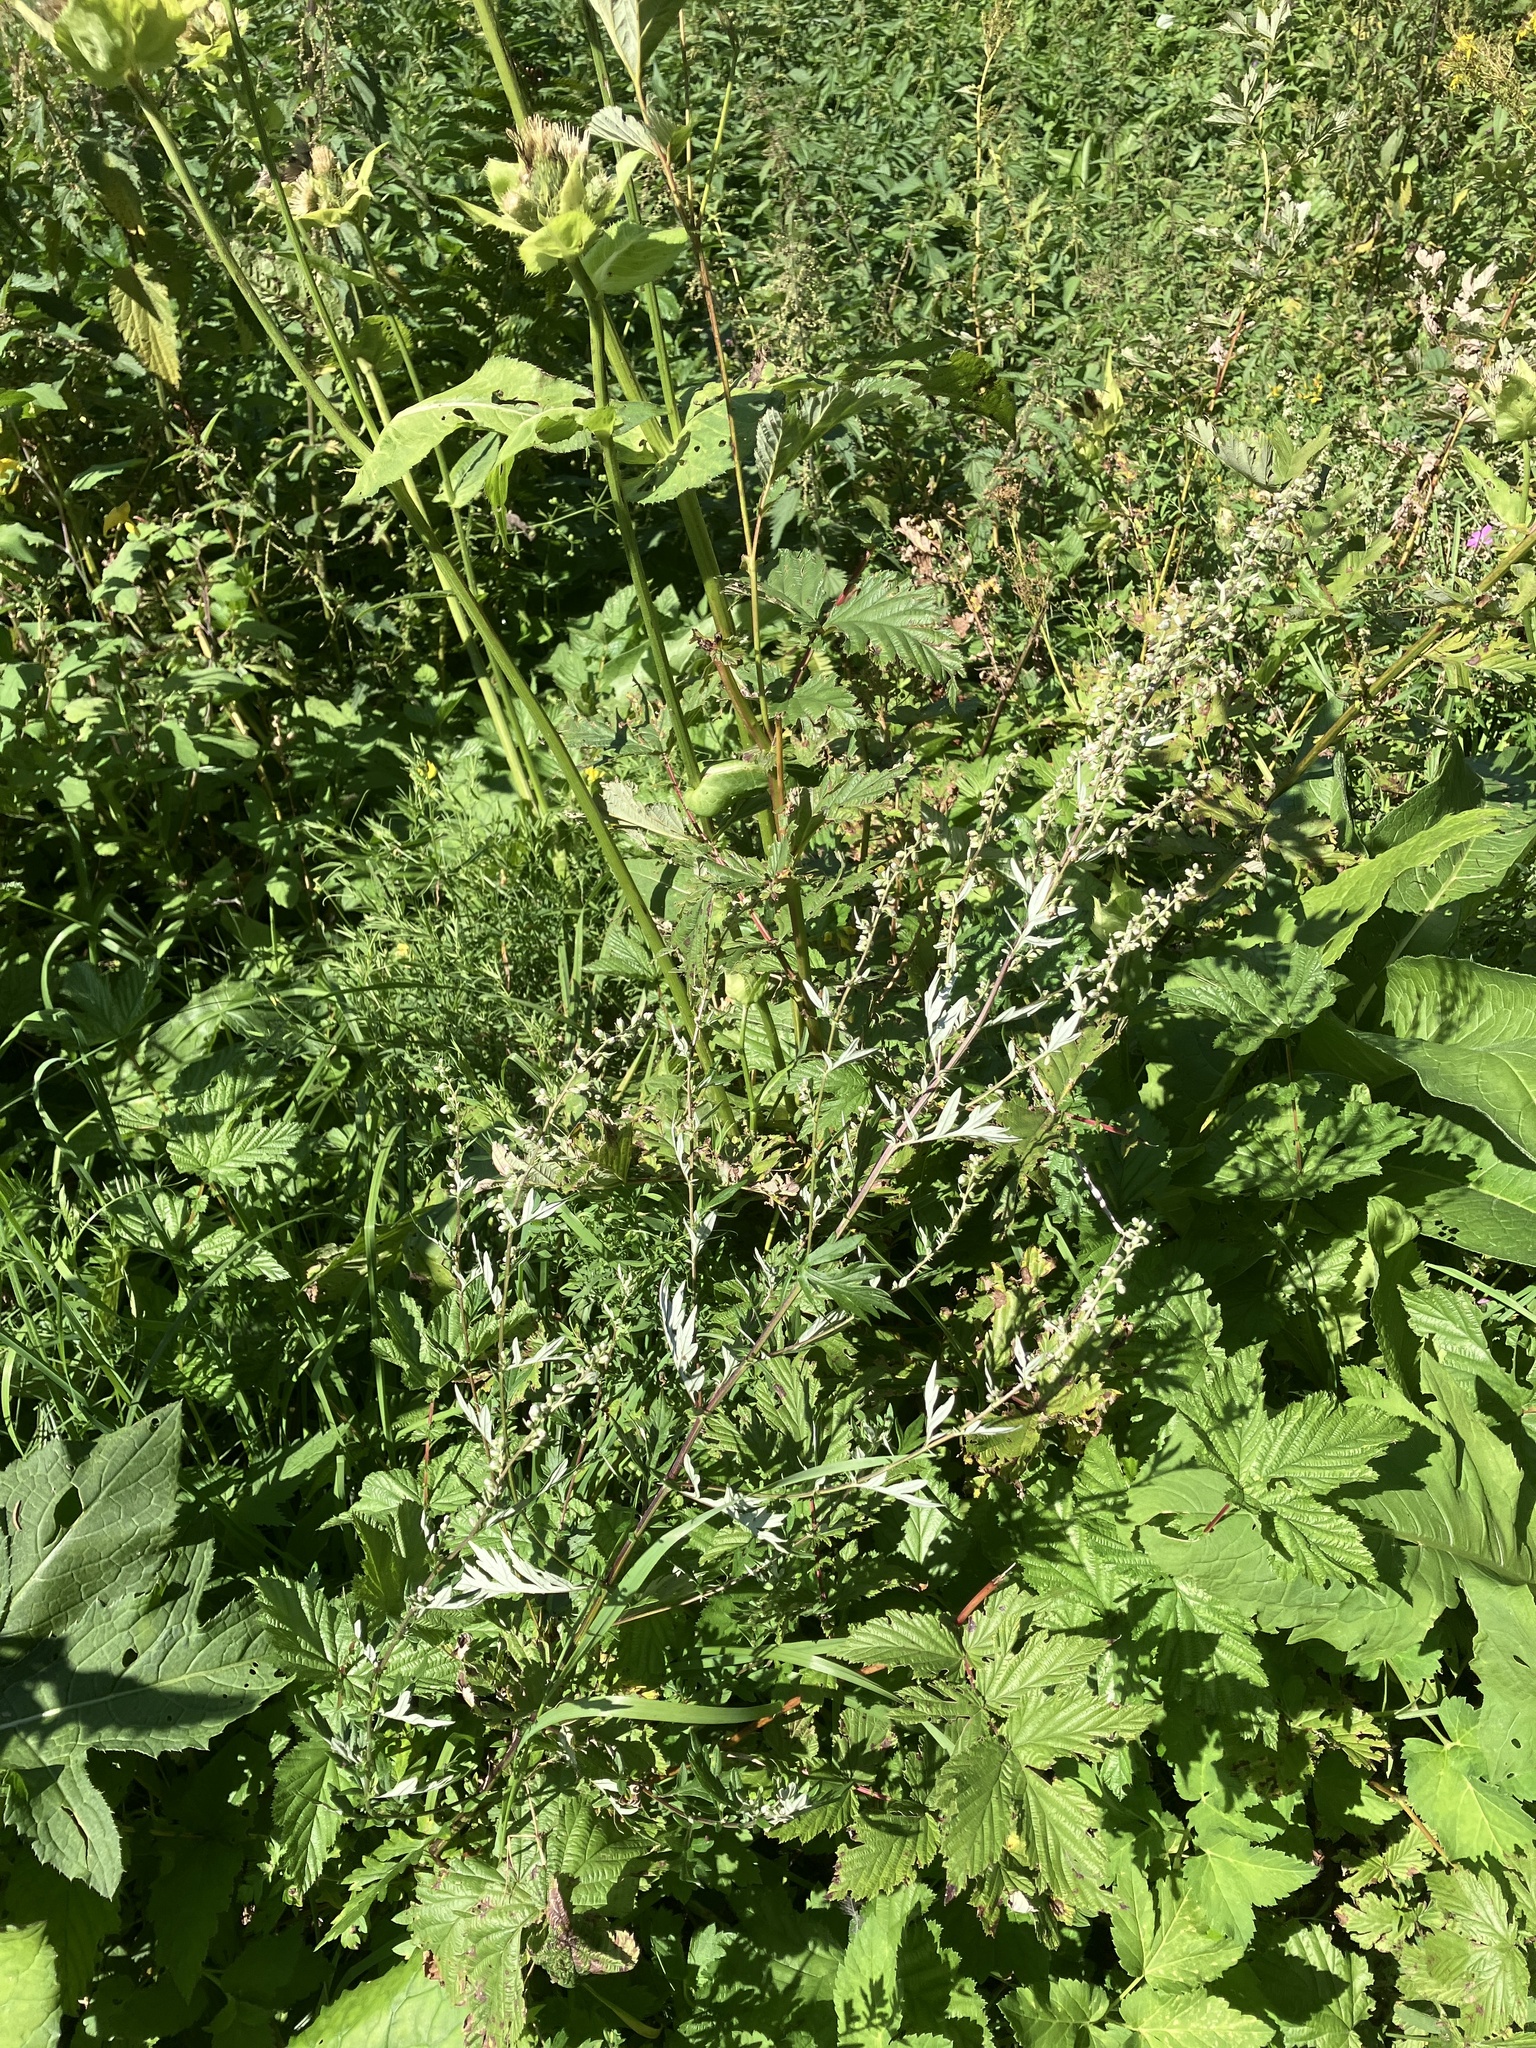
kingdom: Plantae
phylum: Tracheophyta
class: Magnoliopsida
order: Asterales
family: Asteraceae
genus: Artemisia
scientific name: Artemisia vulgaris
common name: Mugwort
